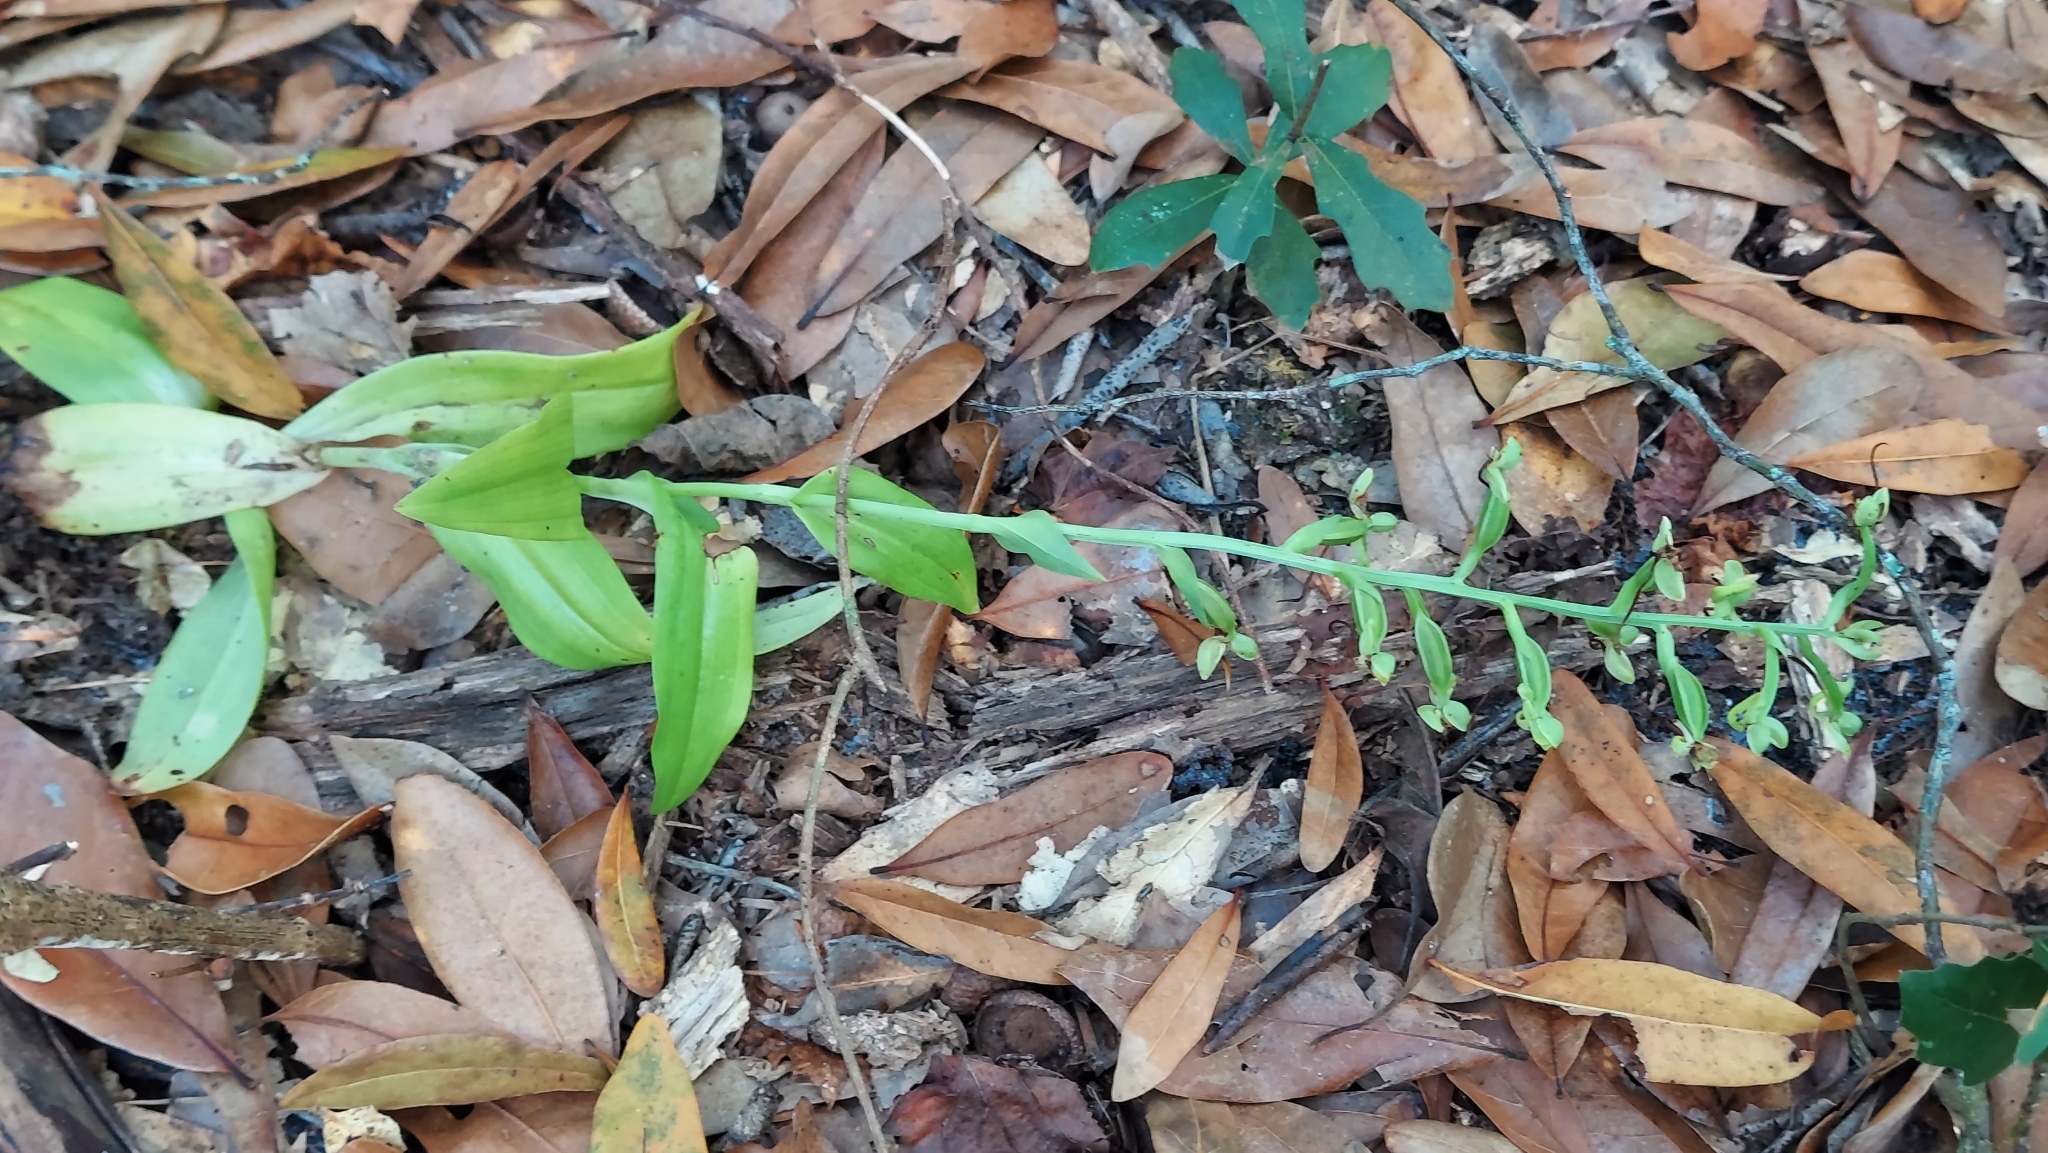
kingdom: Plantae
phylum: Tracheophyta
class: Liliopsida
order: Asparagales
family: Orchidaceae
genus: Habenaria
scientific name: Habenaria floribunda
